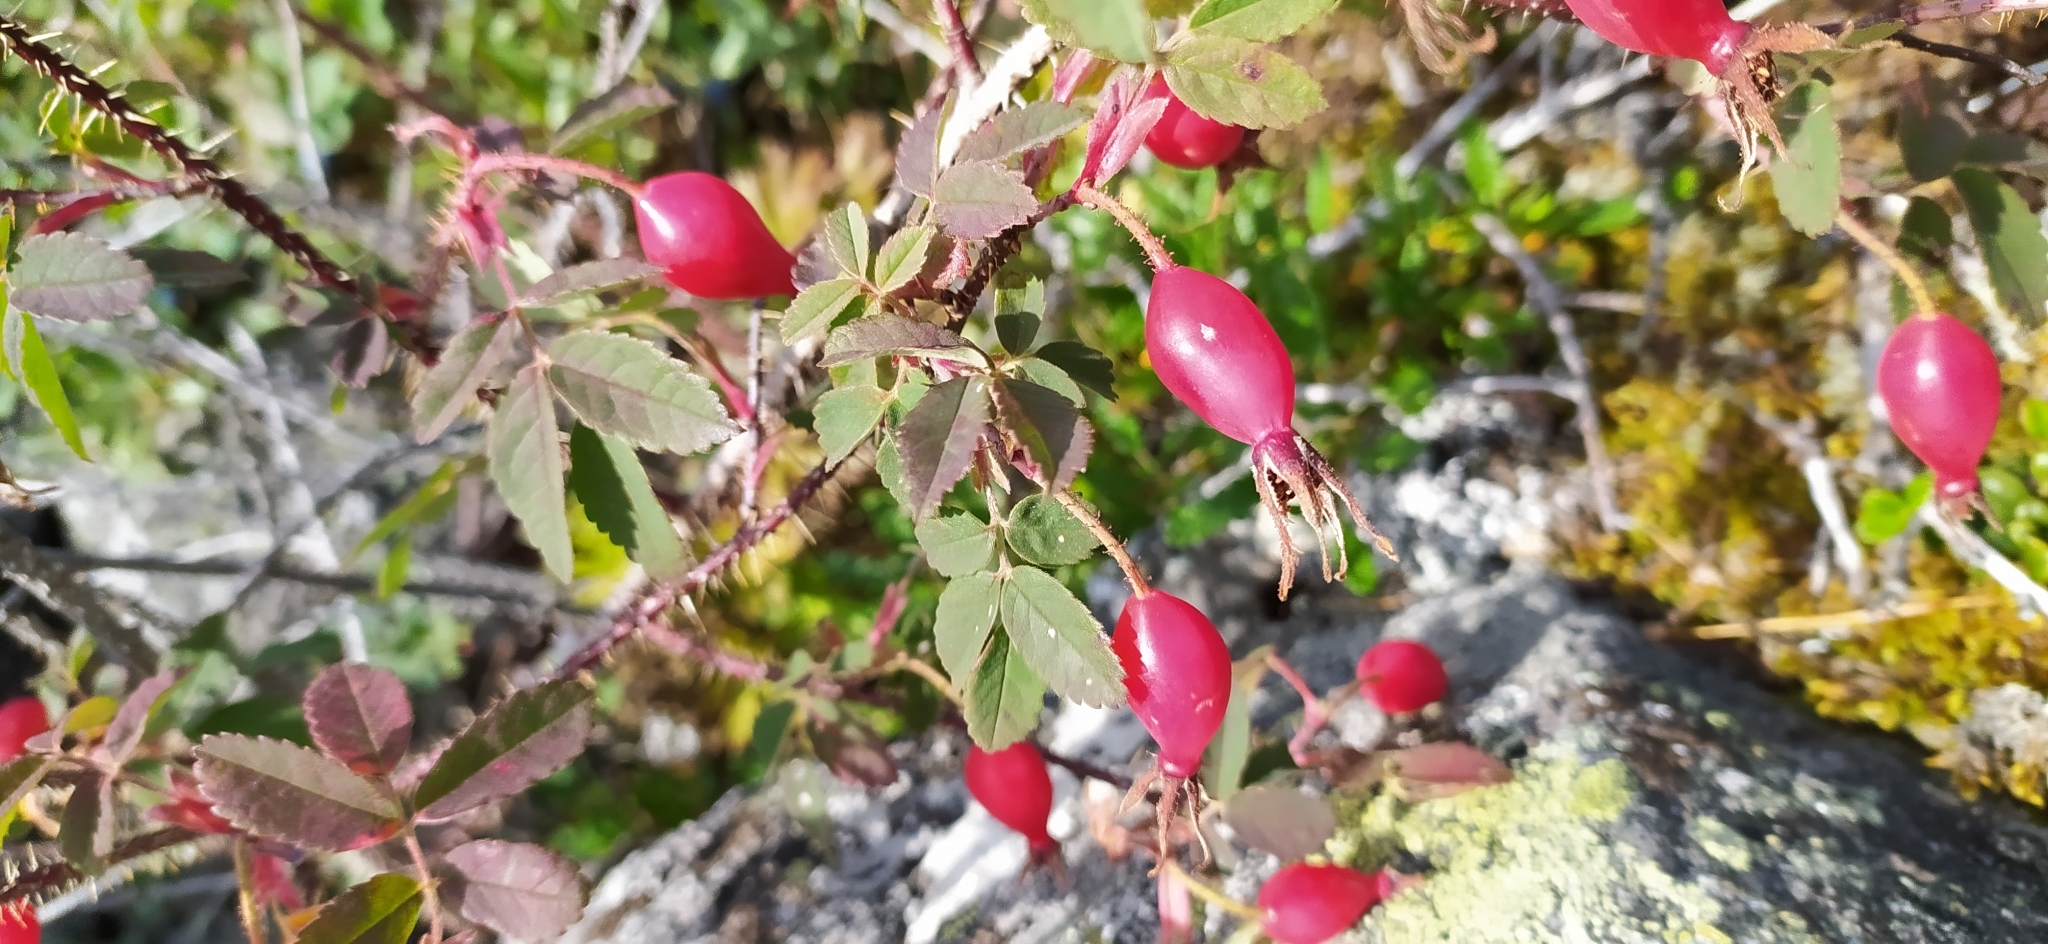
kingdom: Plantae
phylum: Tracheophyta
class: Magnoliopsida
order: Rosales
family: Rosaceae
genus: Rosa
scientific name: Rosa acicularis
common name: Prickly rose
